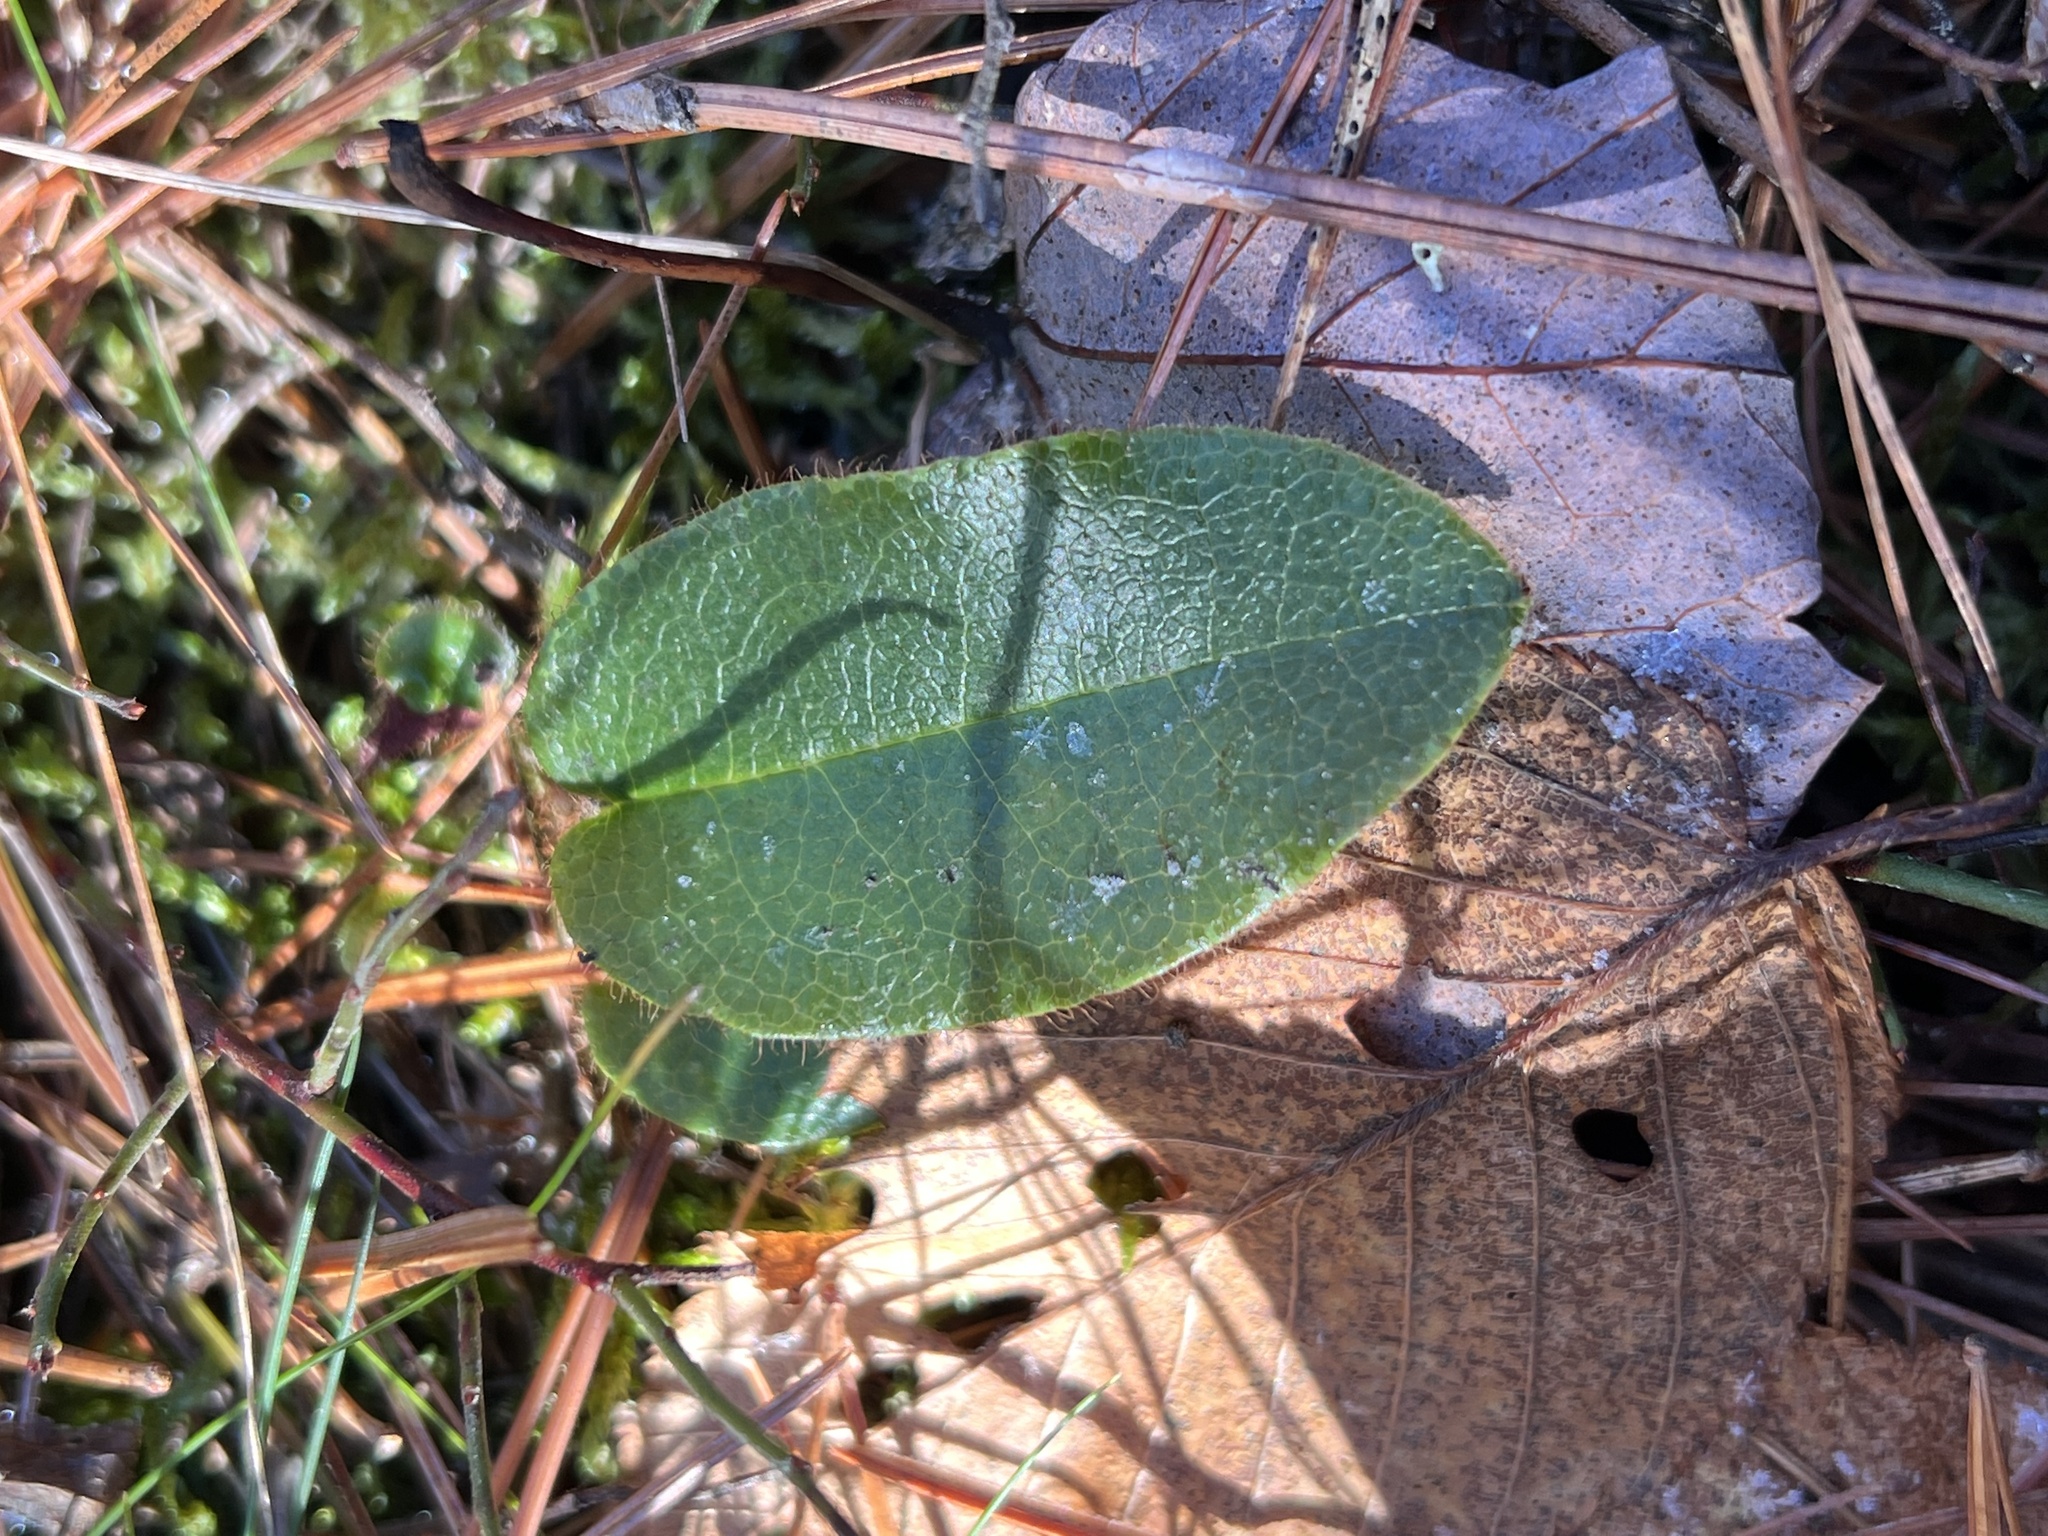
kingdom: Plantae
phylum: Tracheophyta
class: Magnoliopsida
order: Ericales
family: Ericaceae
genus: Epigaea
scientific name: Epigaea repens
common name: Gravelroot
